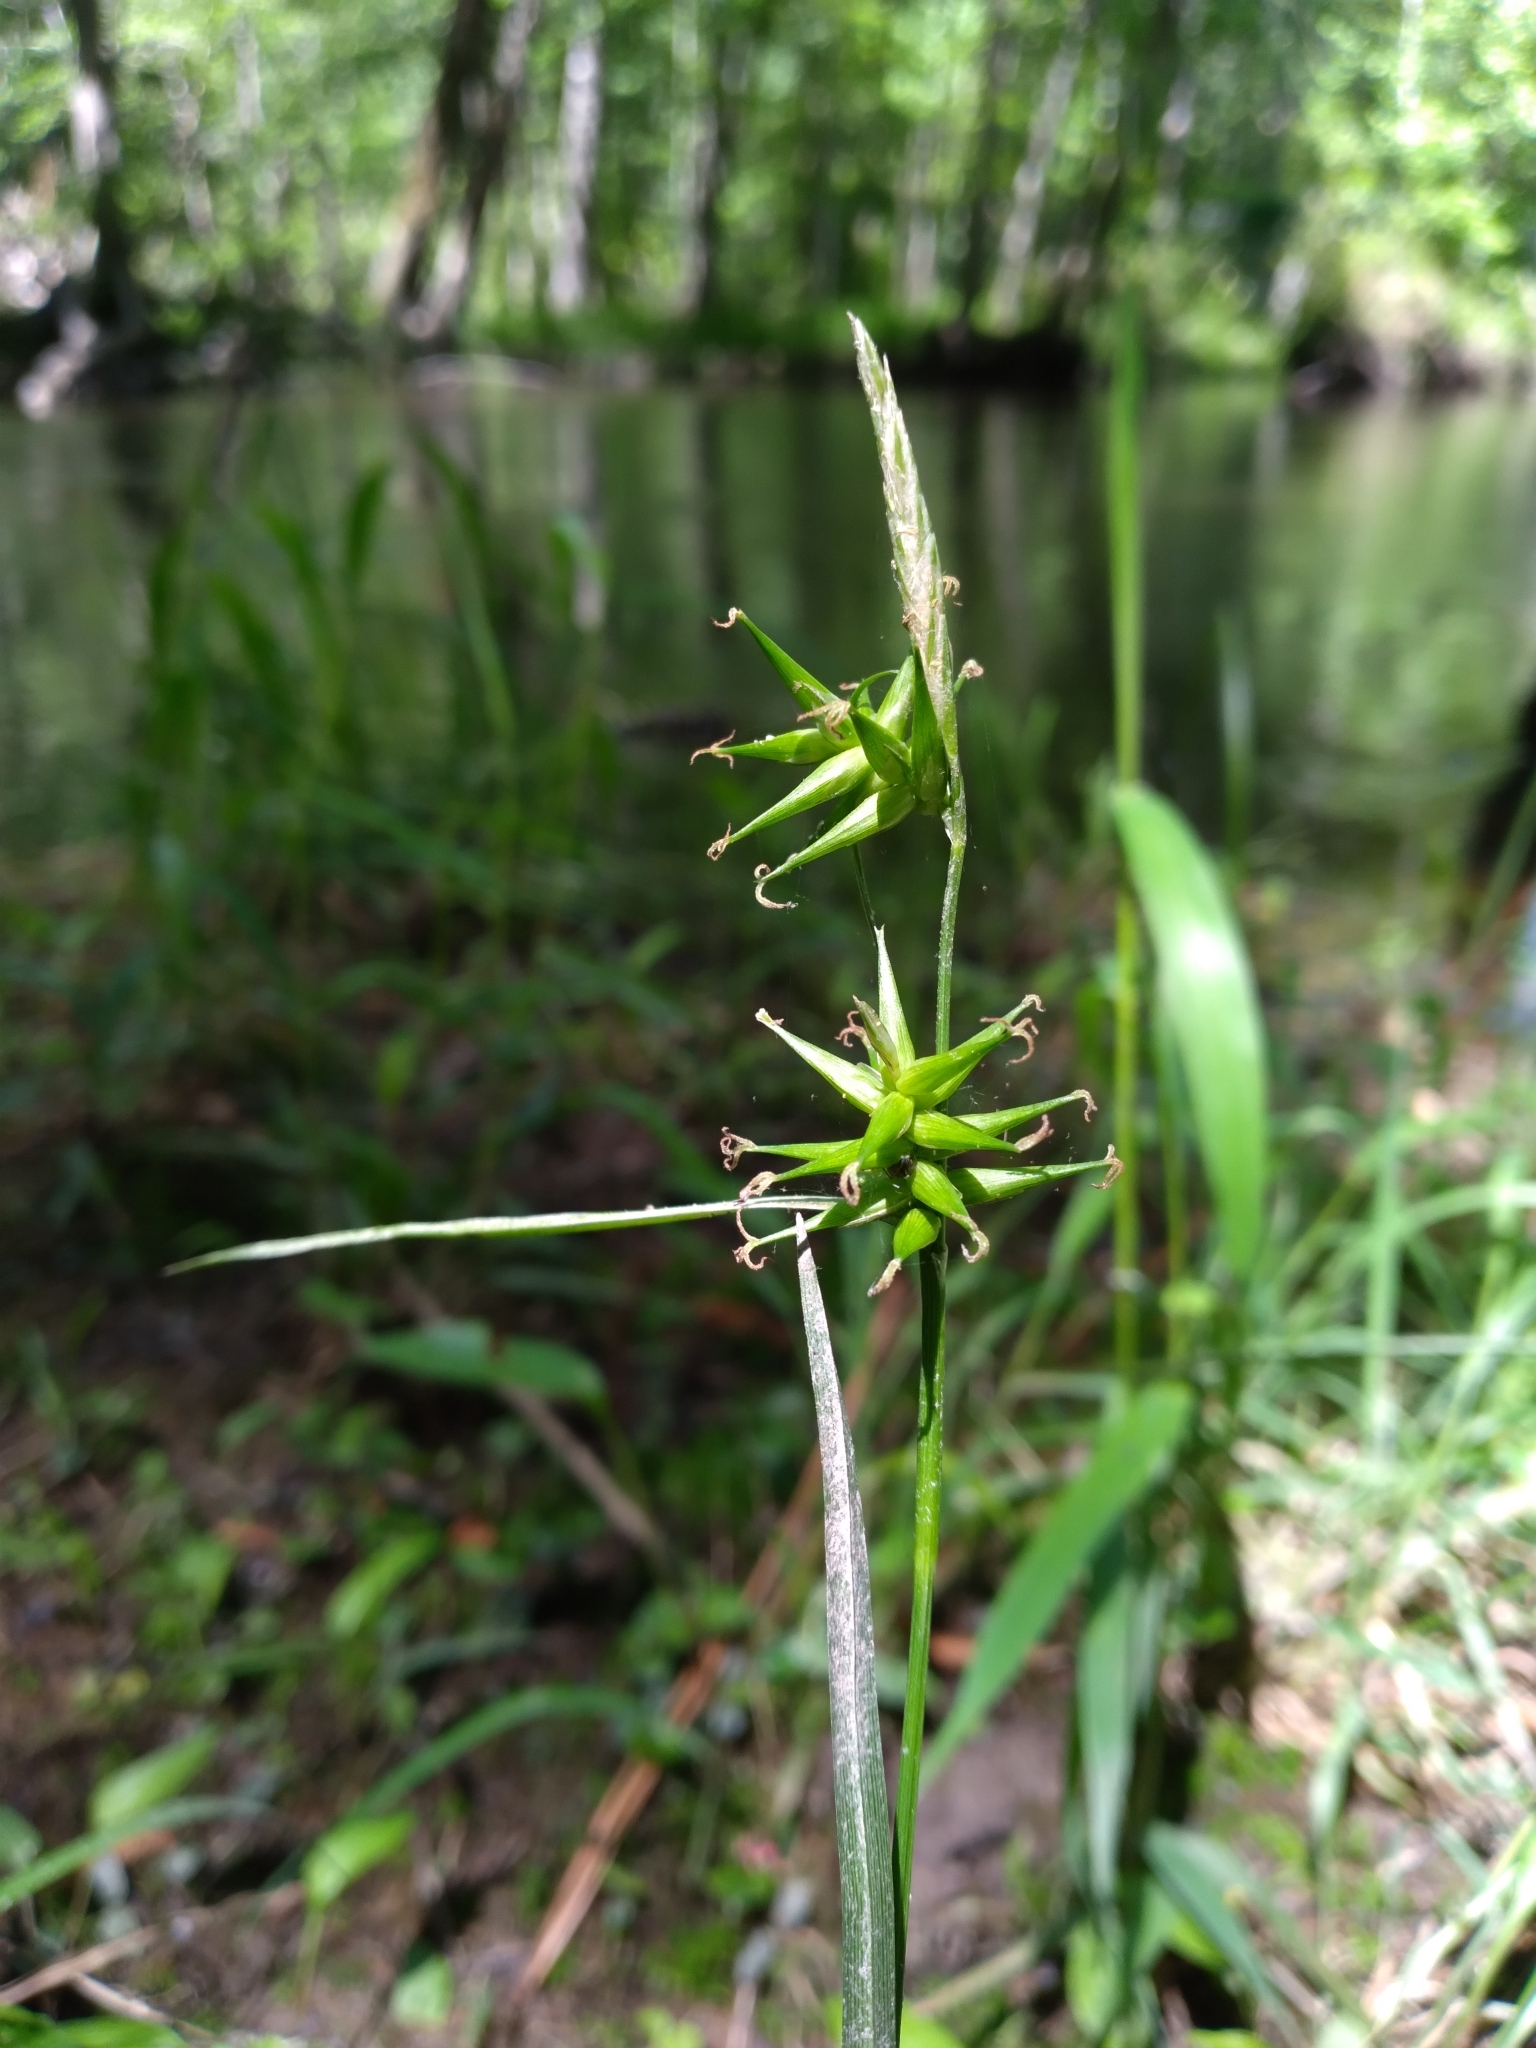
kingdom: Plantae
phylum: Tracheophyta
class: Liliopsida
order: Poales
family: Cyperaceae
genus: Carex
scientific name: Carex lonchocarpa
